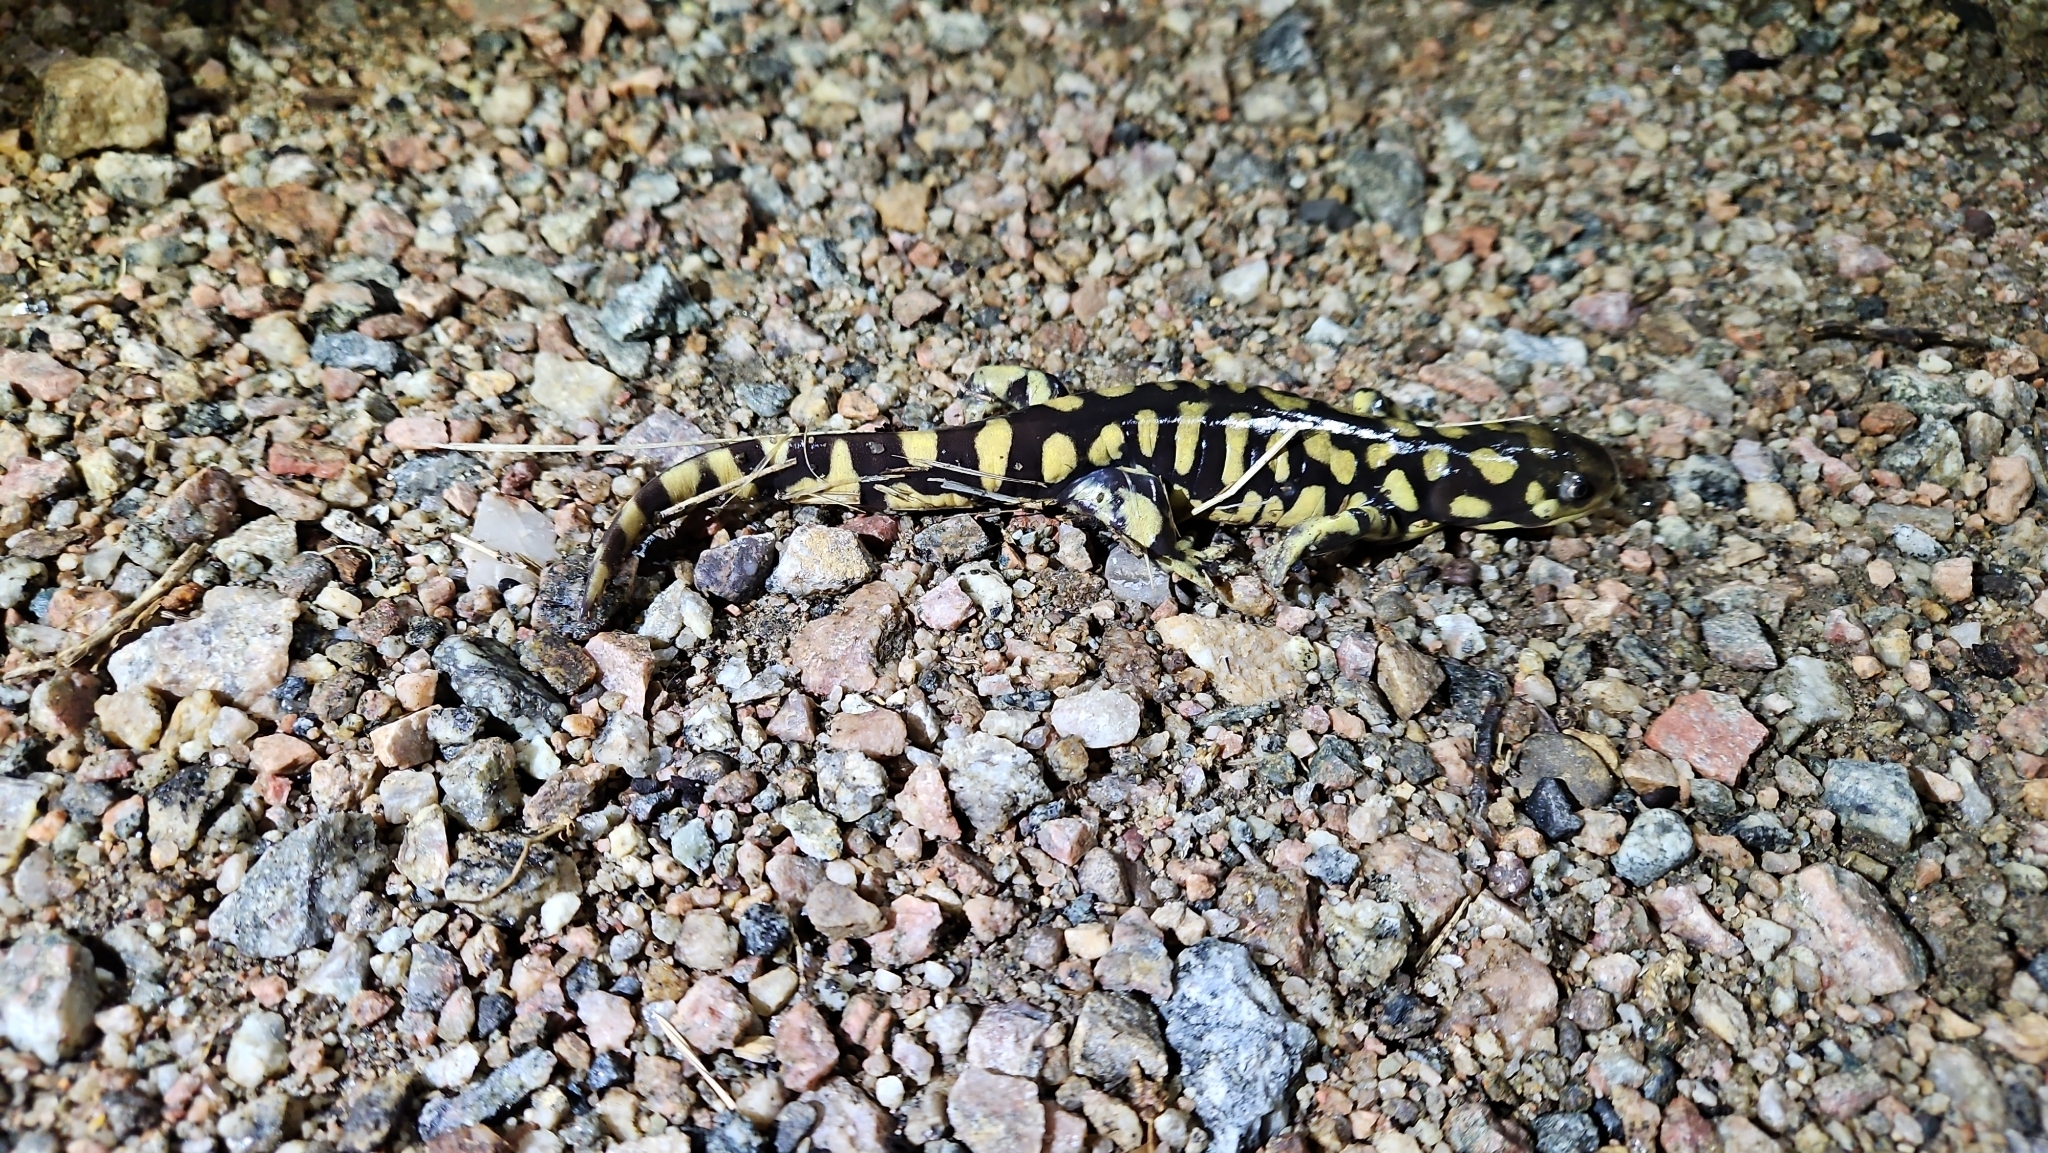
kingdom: Animalia
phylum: Chordata
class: Amphibia
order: Caudata
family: Ambystomatidae
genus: Ambystoma
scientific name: Ambystoma mavortium
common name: Western tiger salamander
